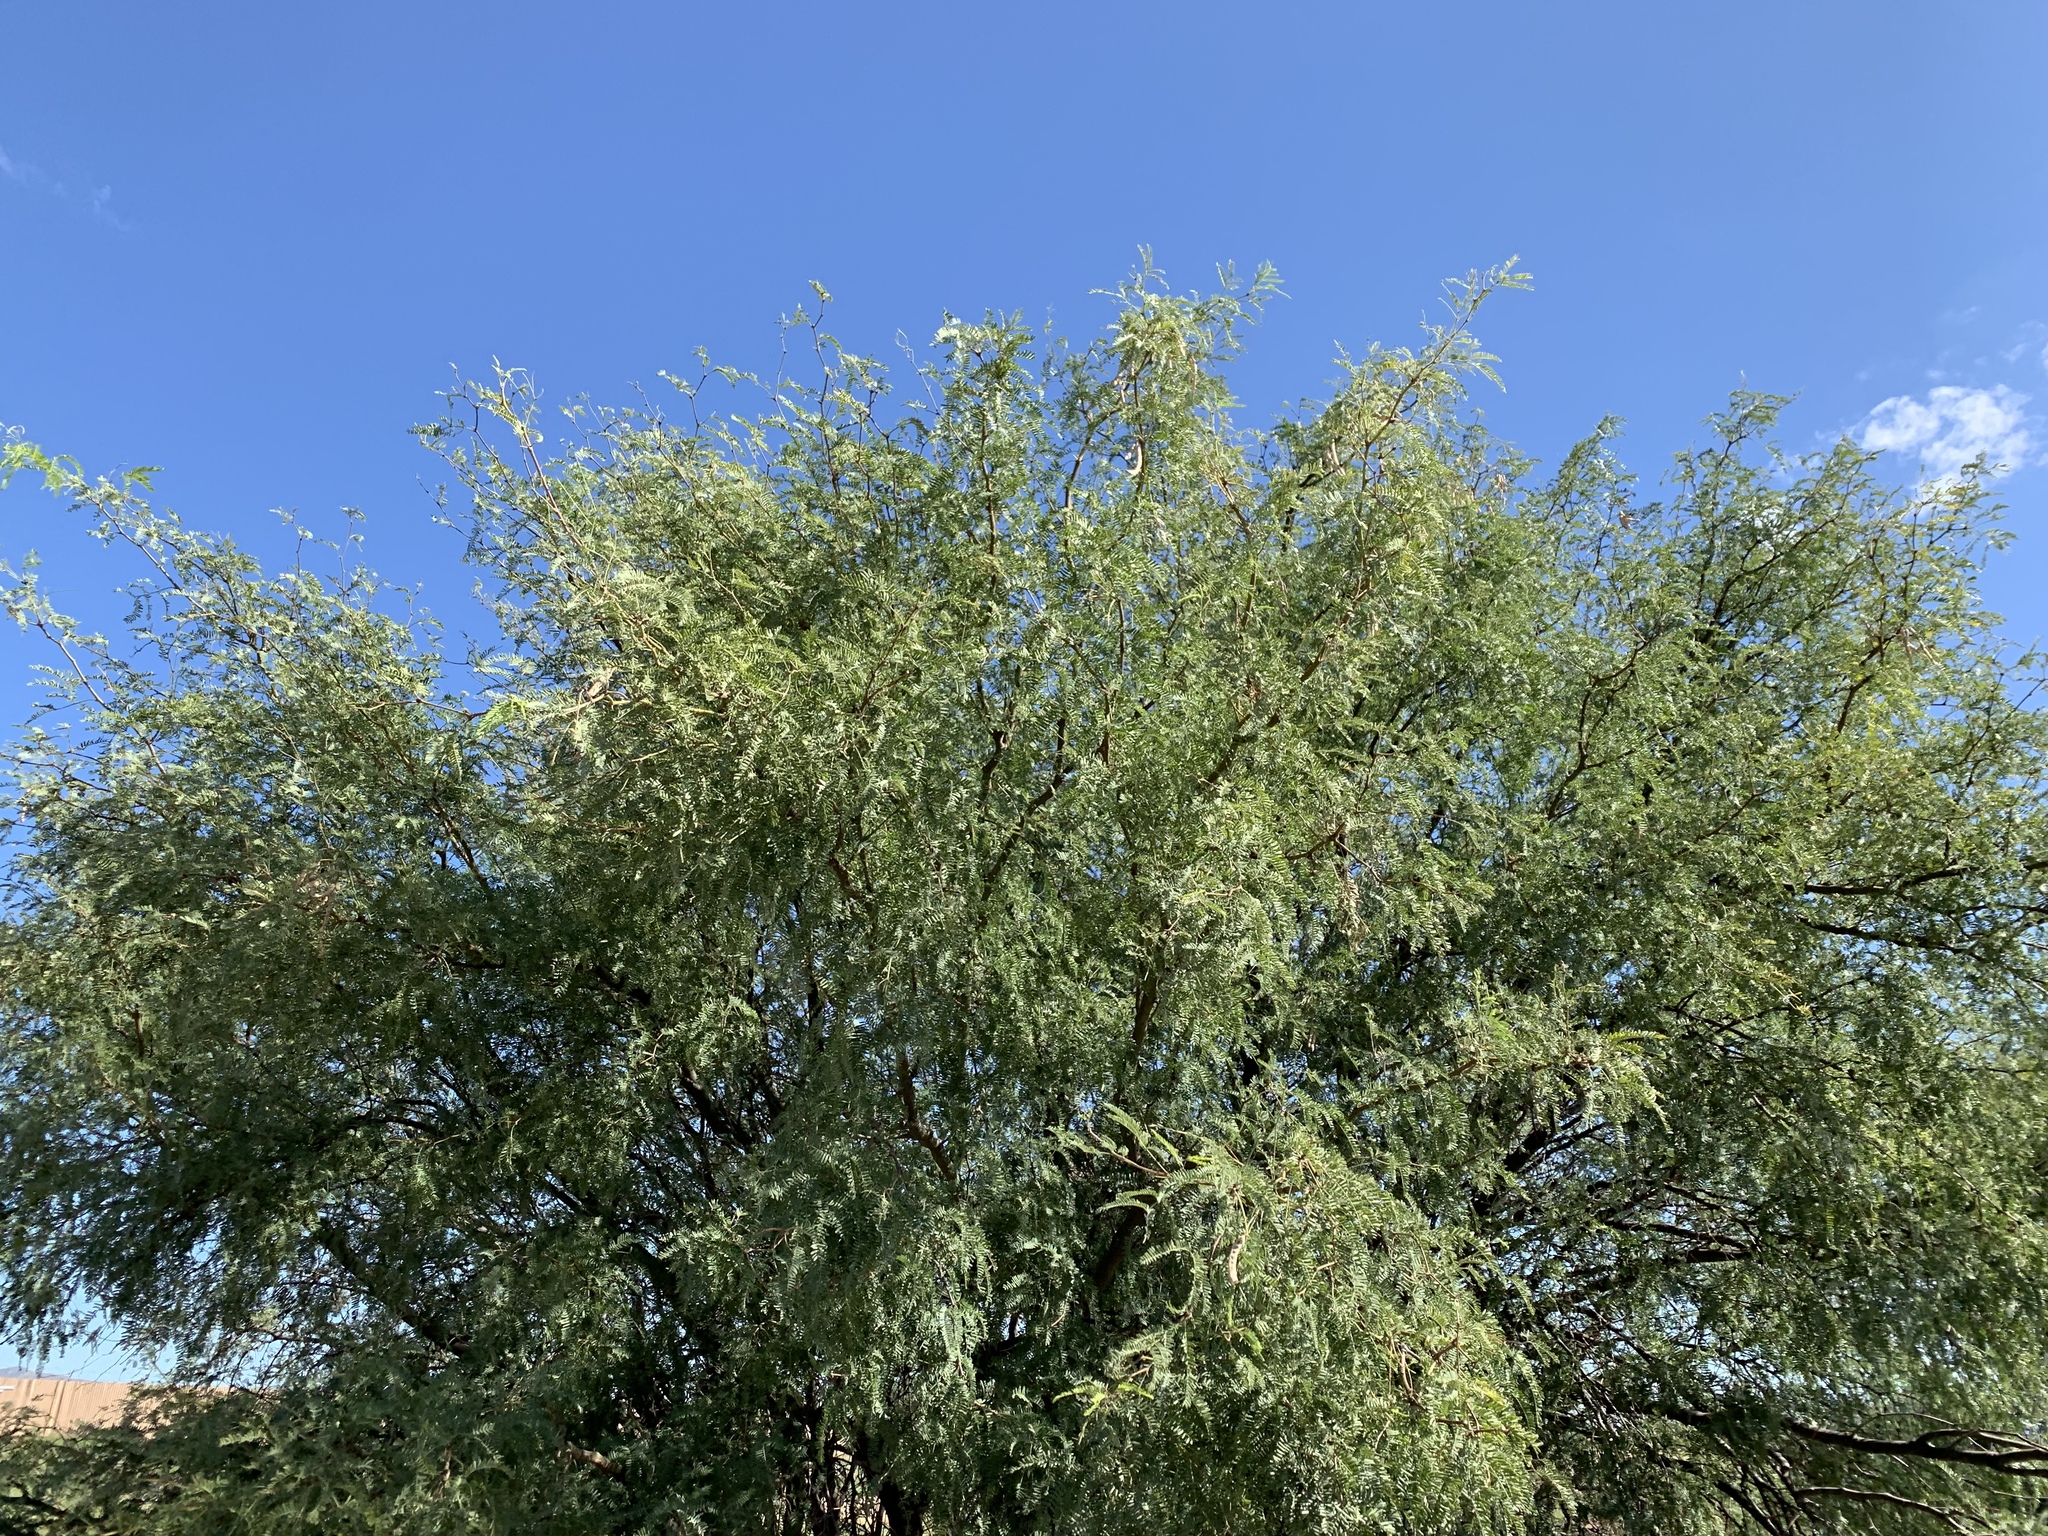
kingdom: Plantae
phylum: Tracheophyta
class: Magnoliopsida
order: Fabales
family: Fabaceae
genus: Prosopis
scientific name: Prosopis velutina
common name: Velvet mesquite
